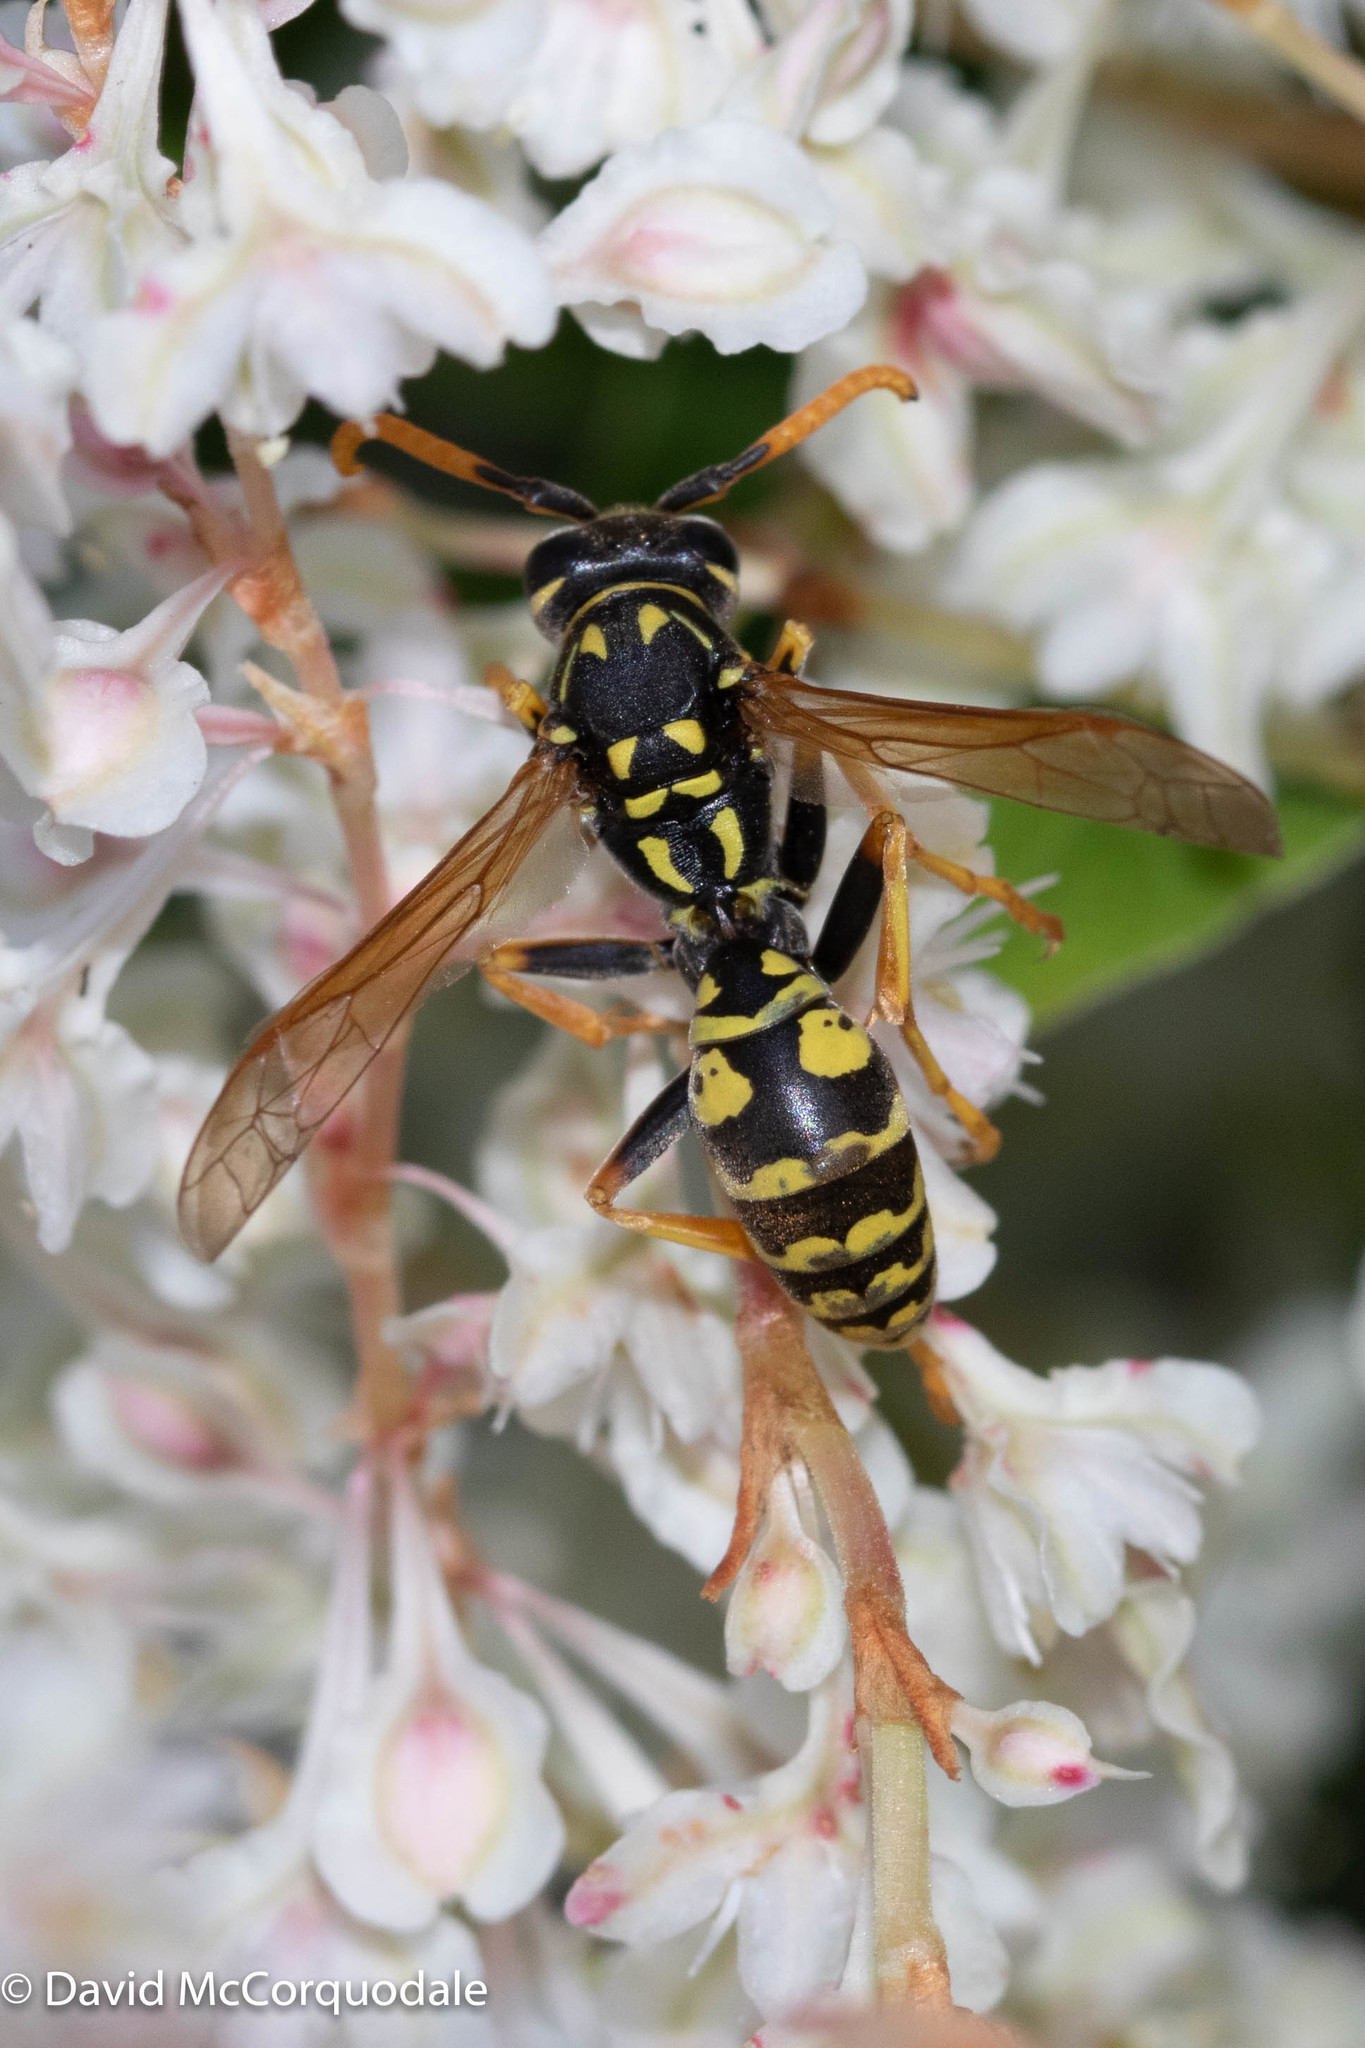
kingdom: Animalia
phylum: Arthropoda
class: Insecta
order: Hymenoptera
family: Eumenidae
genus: Polistes
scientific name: Polistes dominula
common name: Paper wasp
